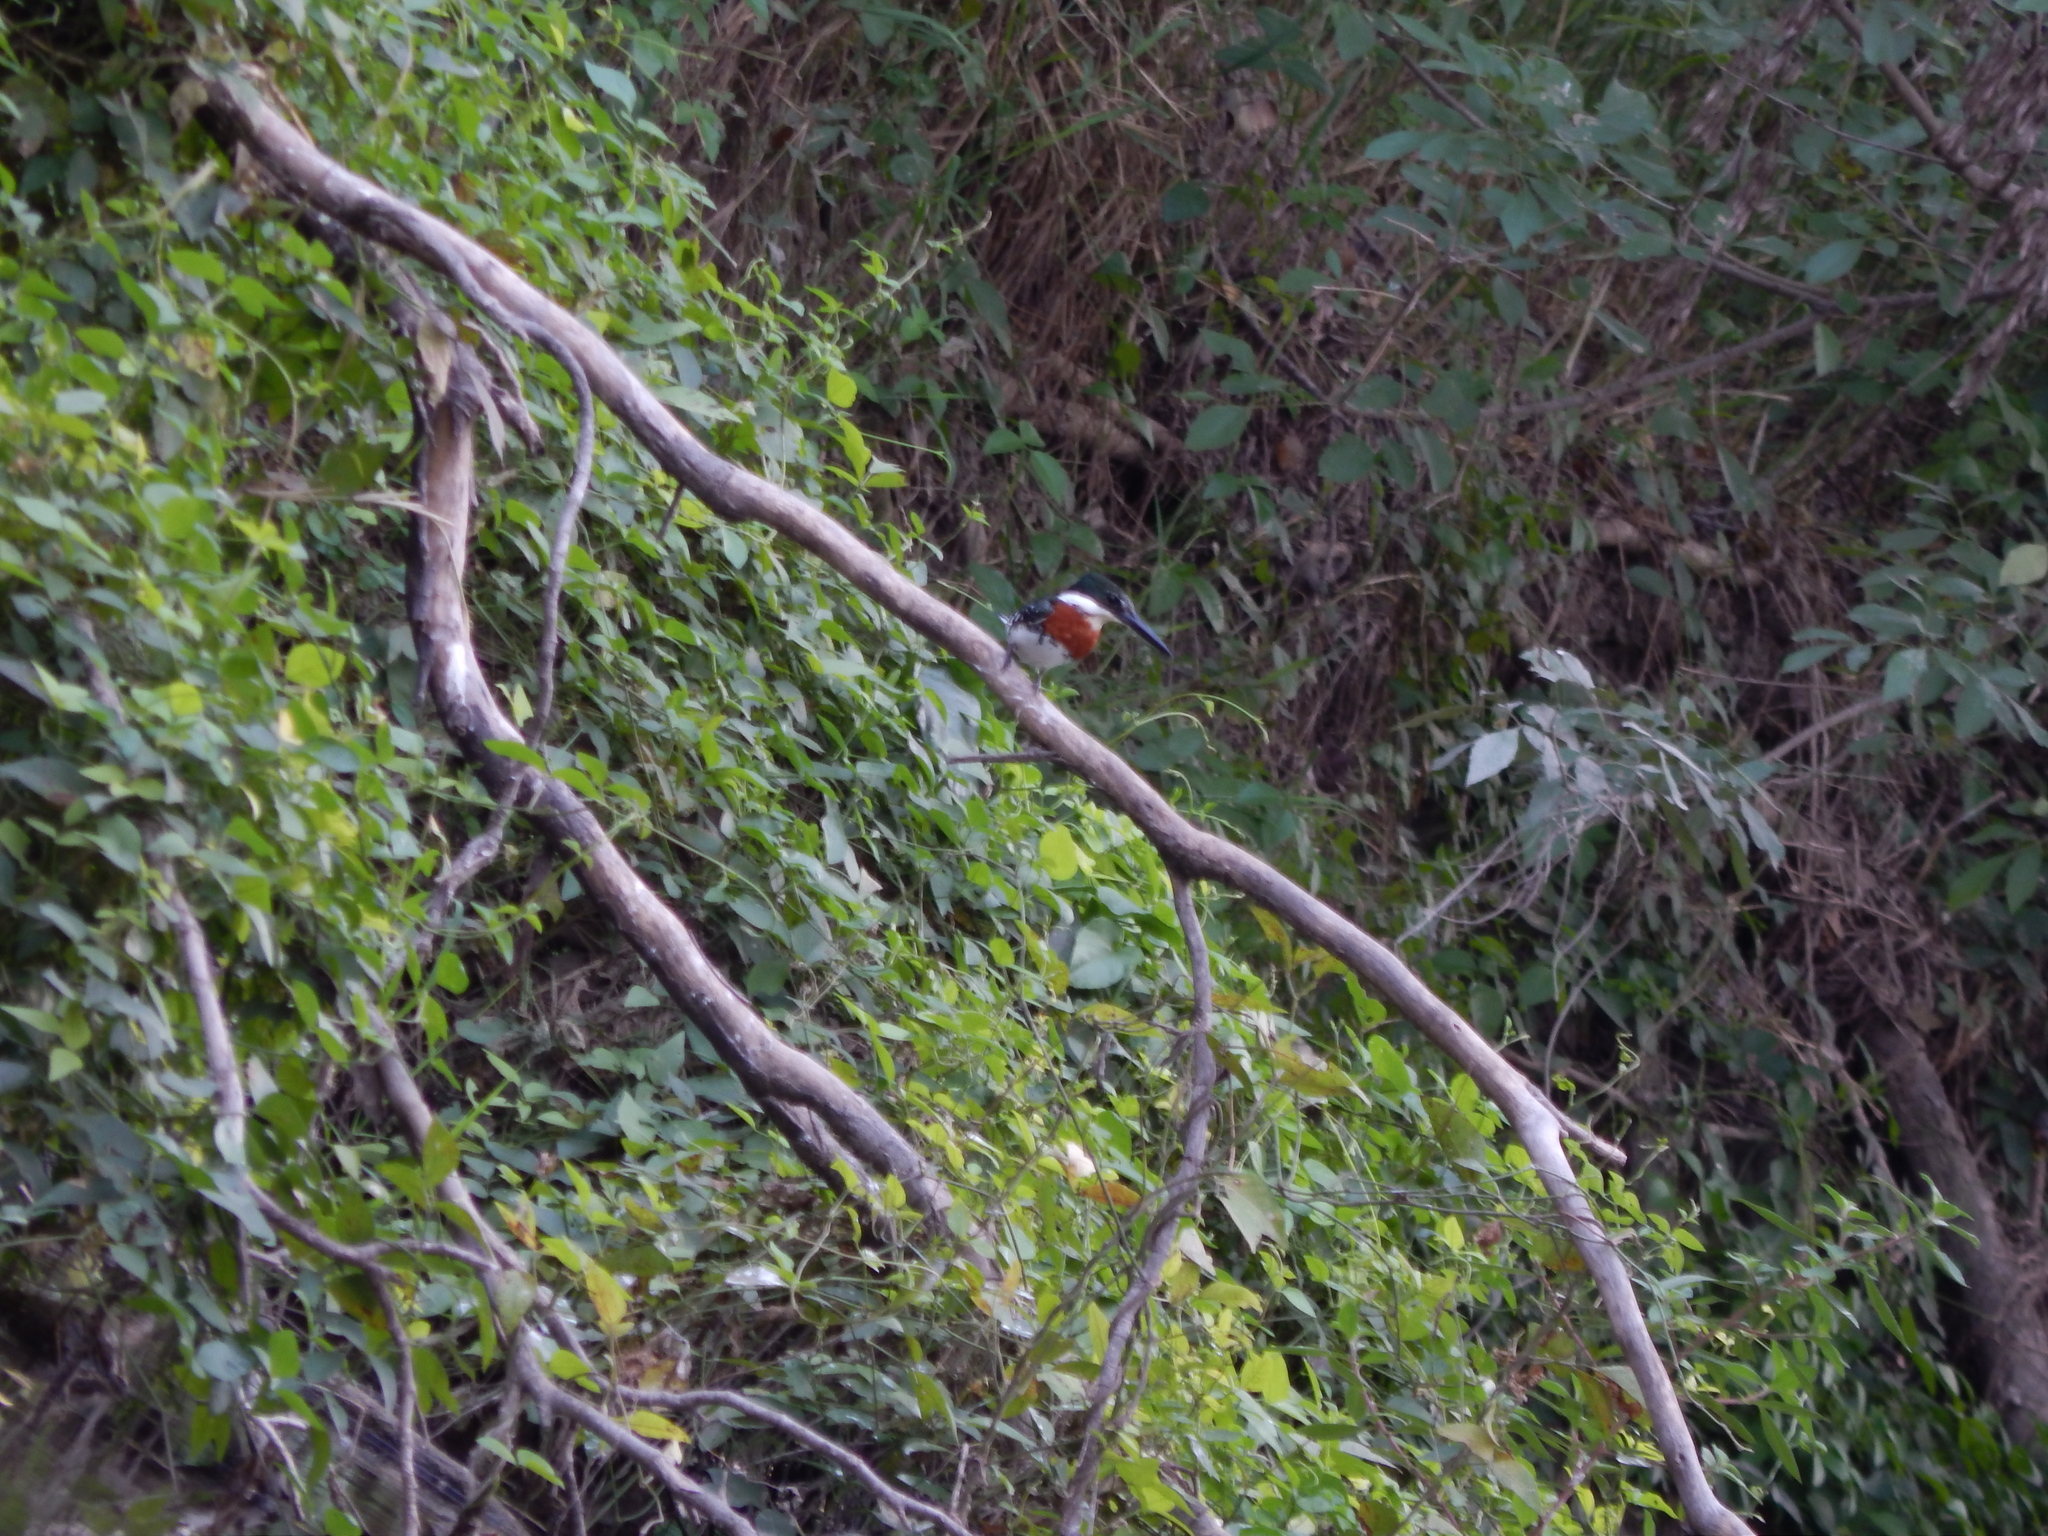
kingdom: Animalia
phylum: Chordata
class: Aves
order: Coraciiformes
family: Alcedinidae
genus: Chloroceryle
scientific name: Chloroceryle americana
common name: Green kingfisher
